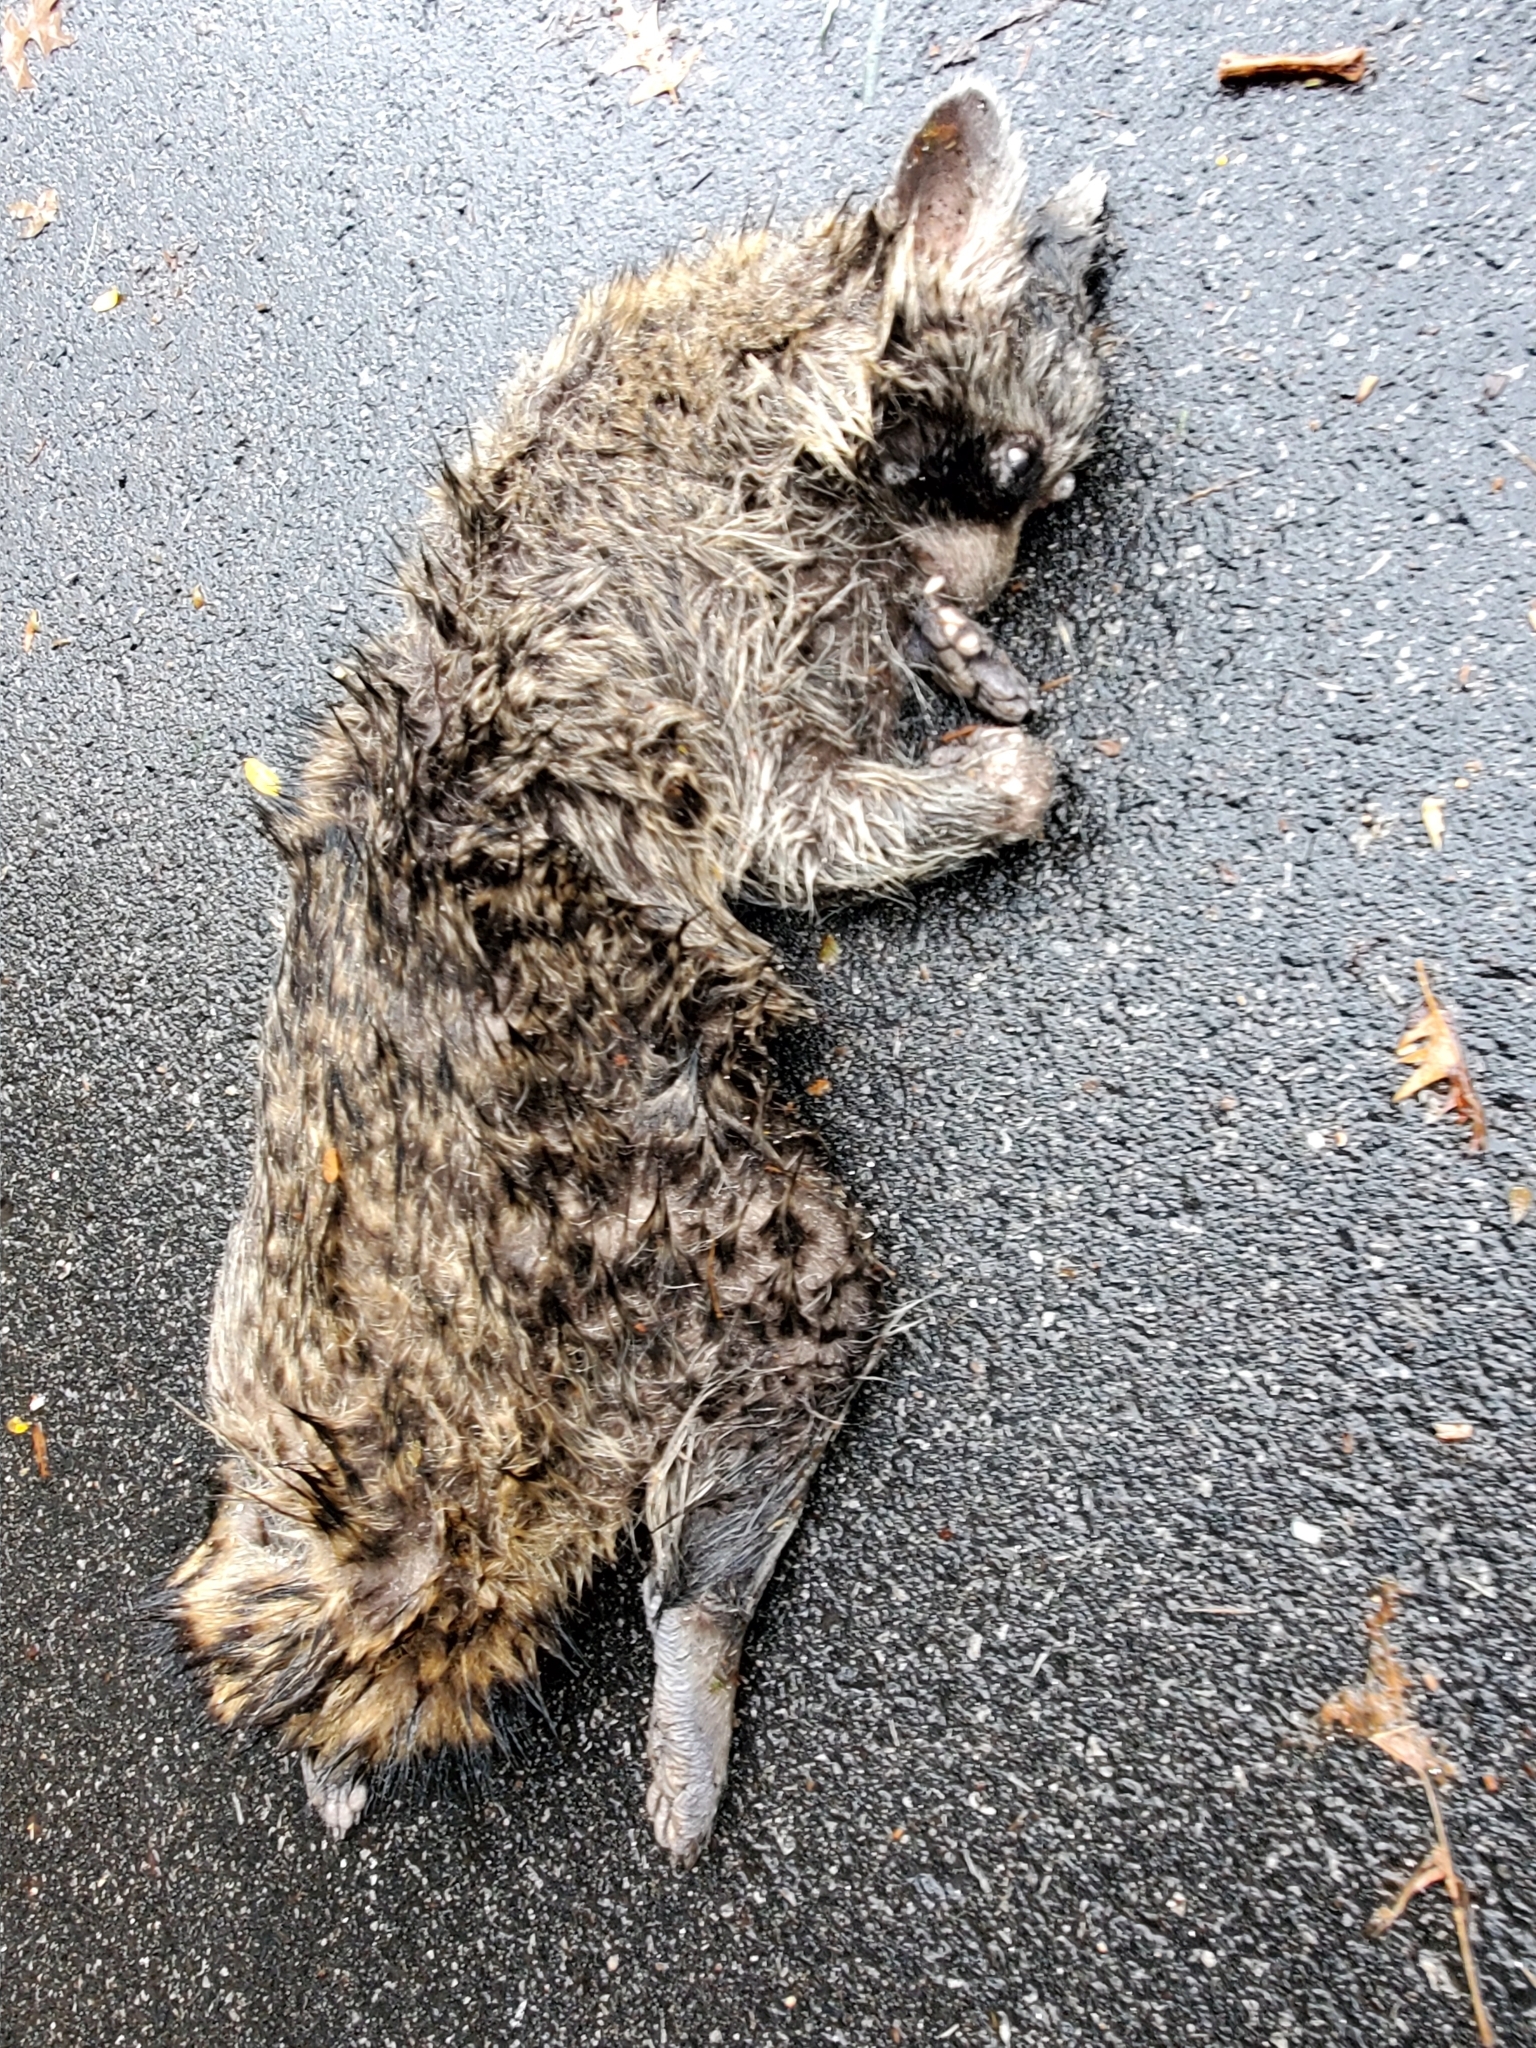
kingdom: Animalia
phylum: Chordata
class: Mammalia
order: Carnivora
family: Procyonidae
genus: Procyon
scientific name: Procyon lotor
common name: Raccoon
